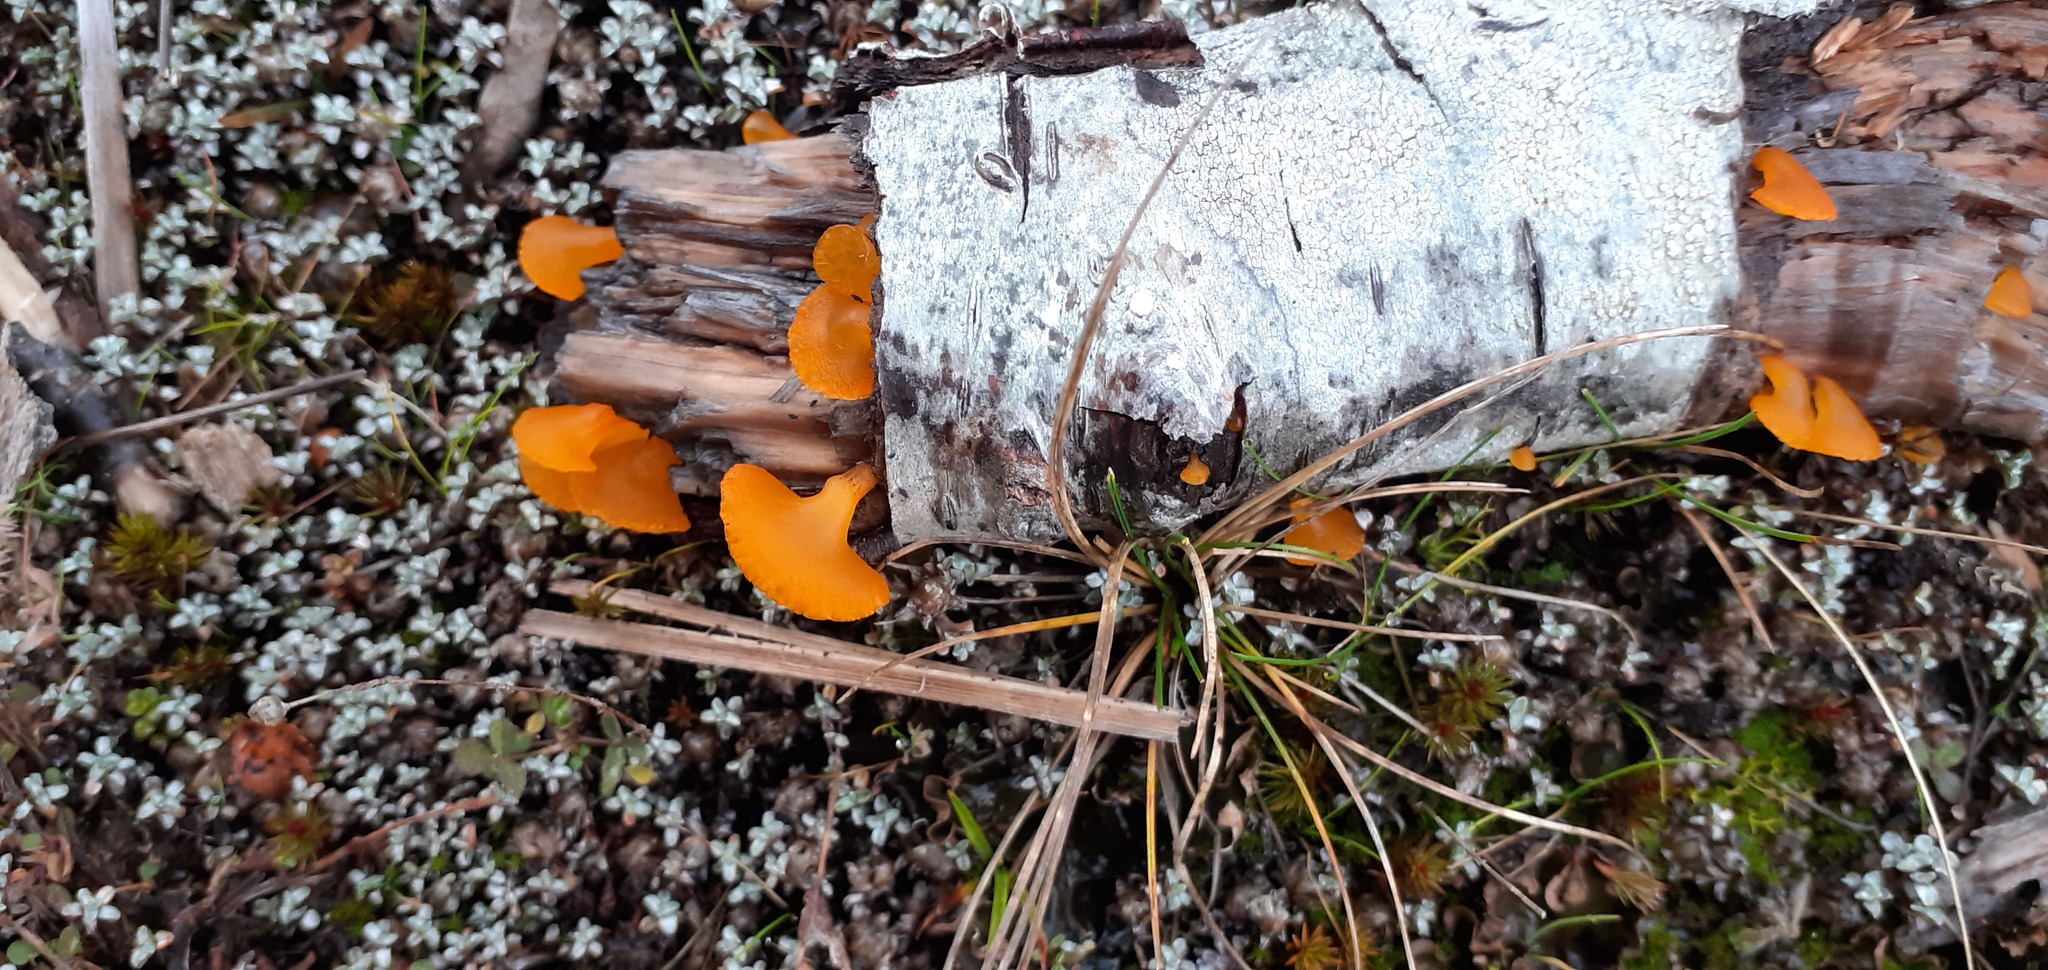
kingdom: Fungi
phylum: Basidiomycota
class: Dacrymycetes
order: Dacrymycetales
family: Dacrymycetaceae
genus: Heterotextus
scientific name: Heterotextus miltinus
